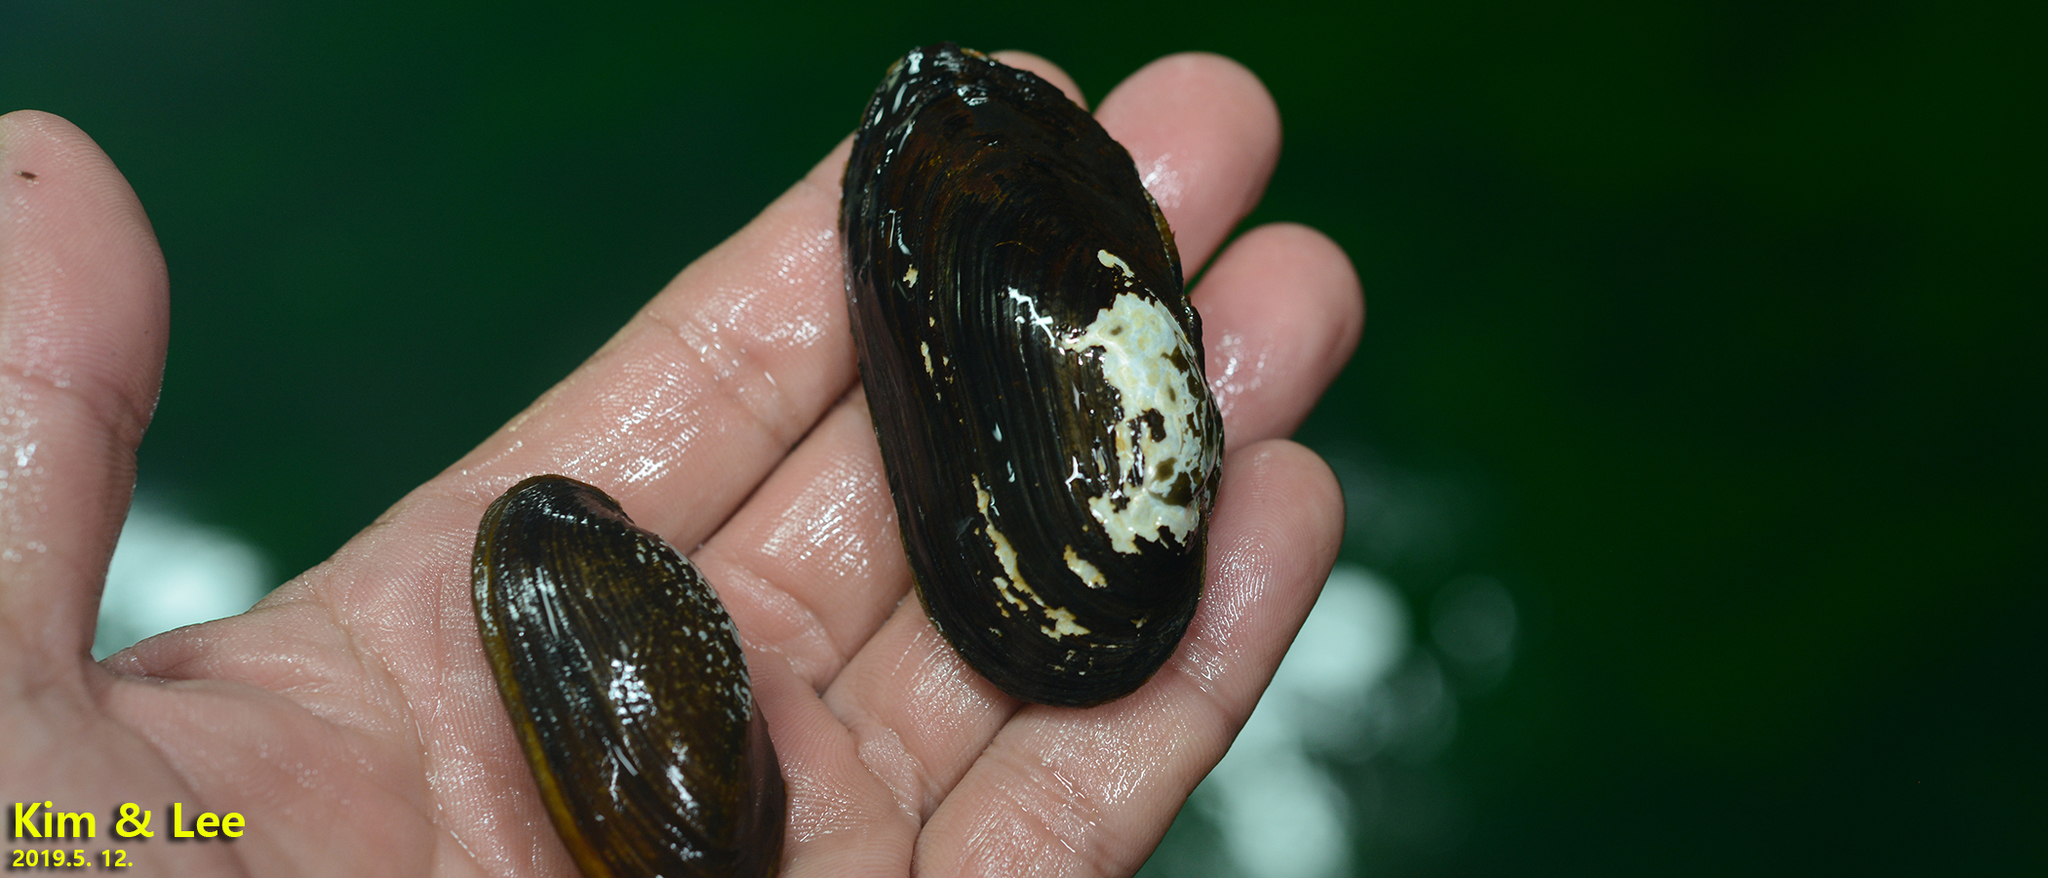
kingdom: Animalia
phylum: Mollusca
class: Bivalvia
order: Unionida
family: Unionidae
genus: Nodularia
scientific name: Nodularia douglasiae
